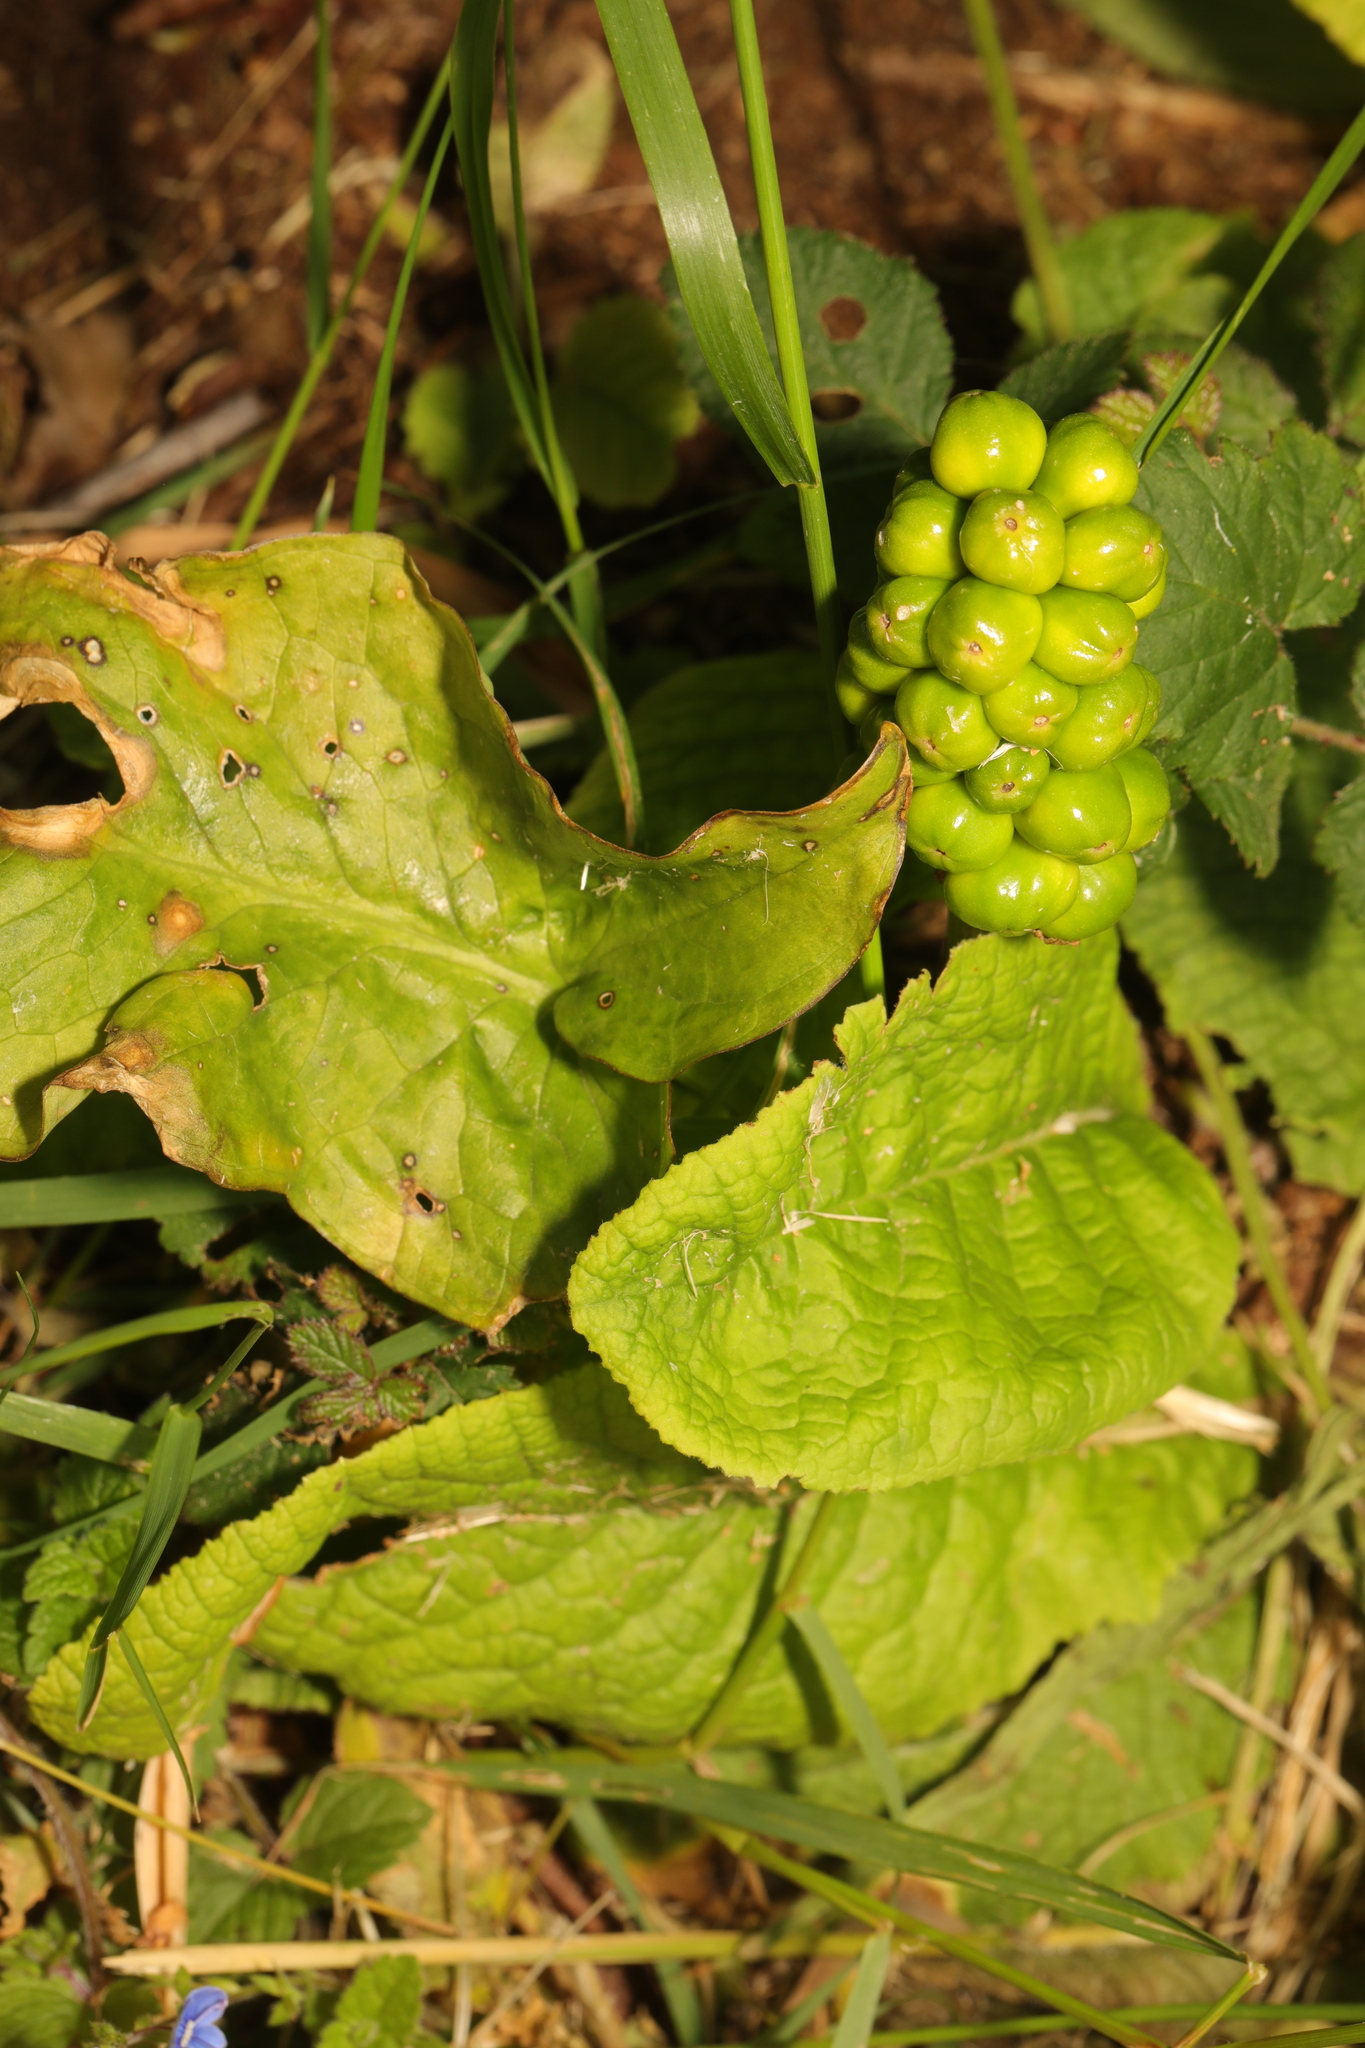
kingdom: Plantae
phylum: Tracheophyta
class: Liliopsida
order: Alismatales
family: Araceae
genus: Arum
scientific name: Arum maculatum
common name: Lords-and-ladies
